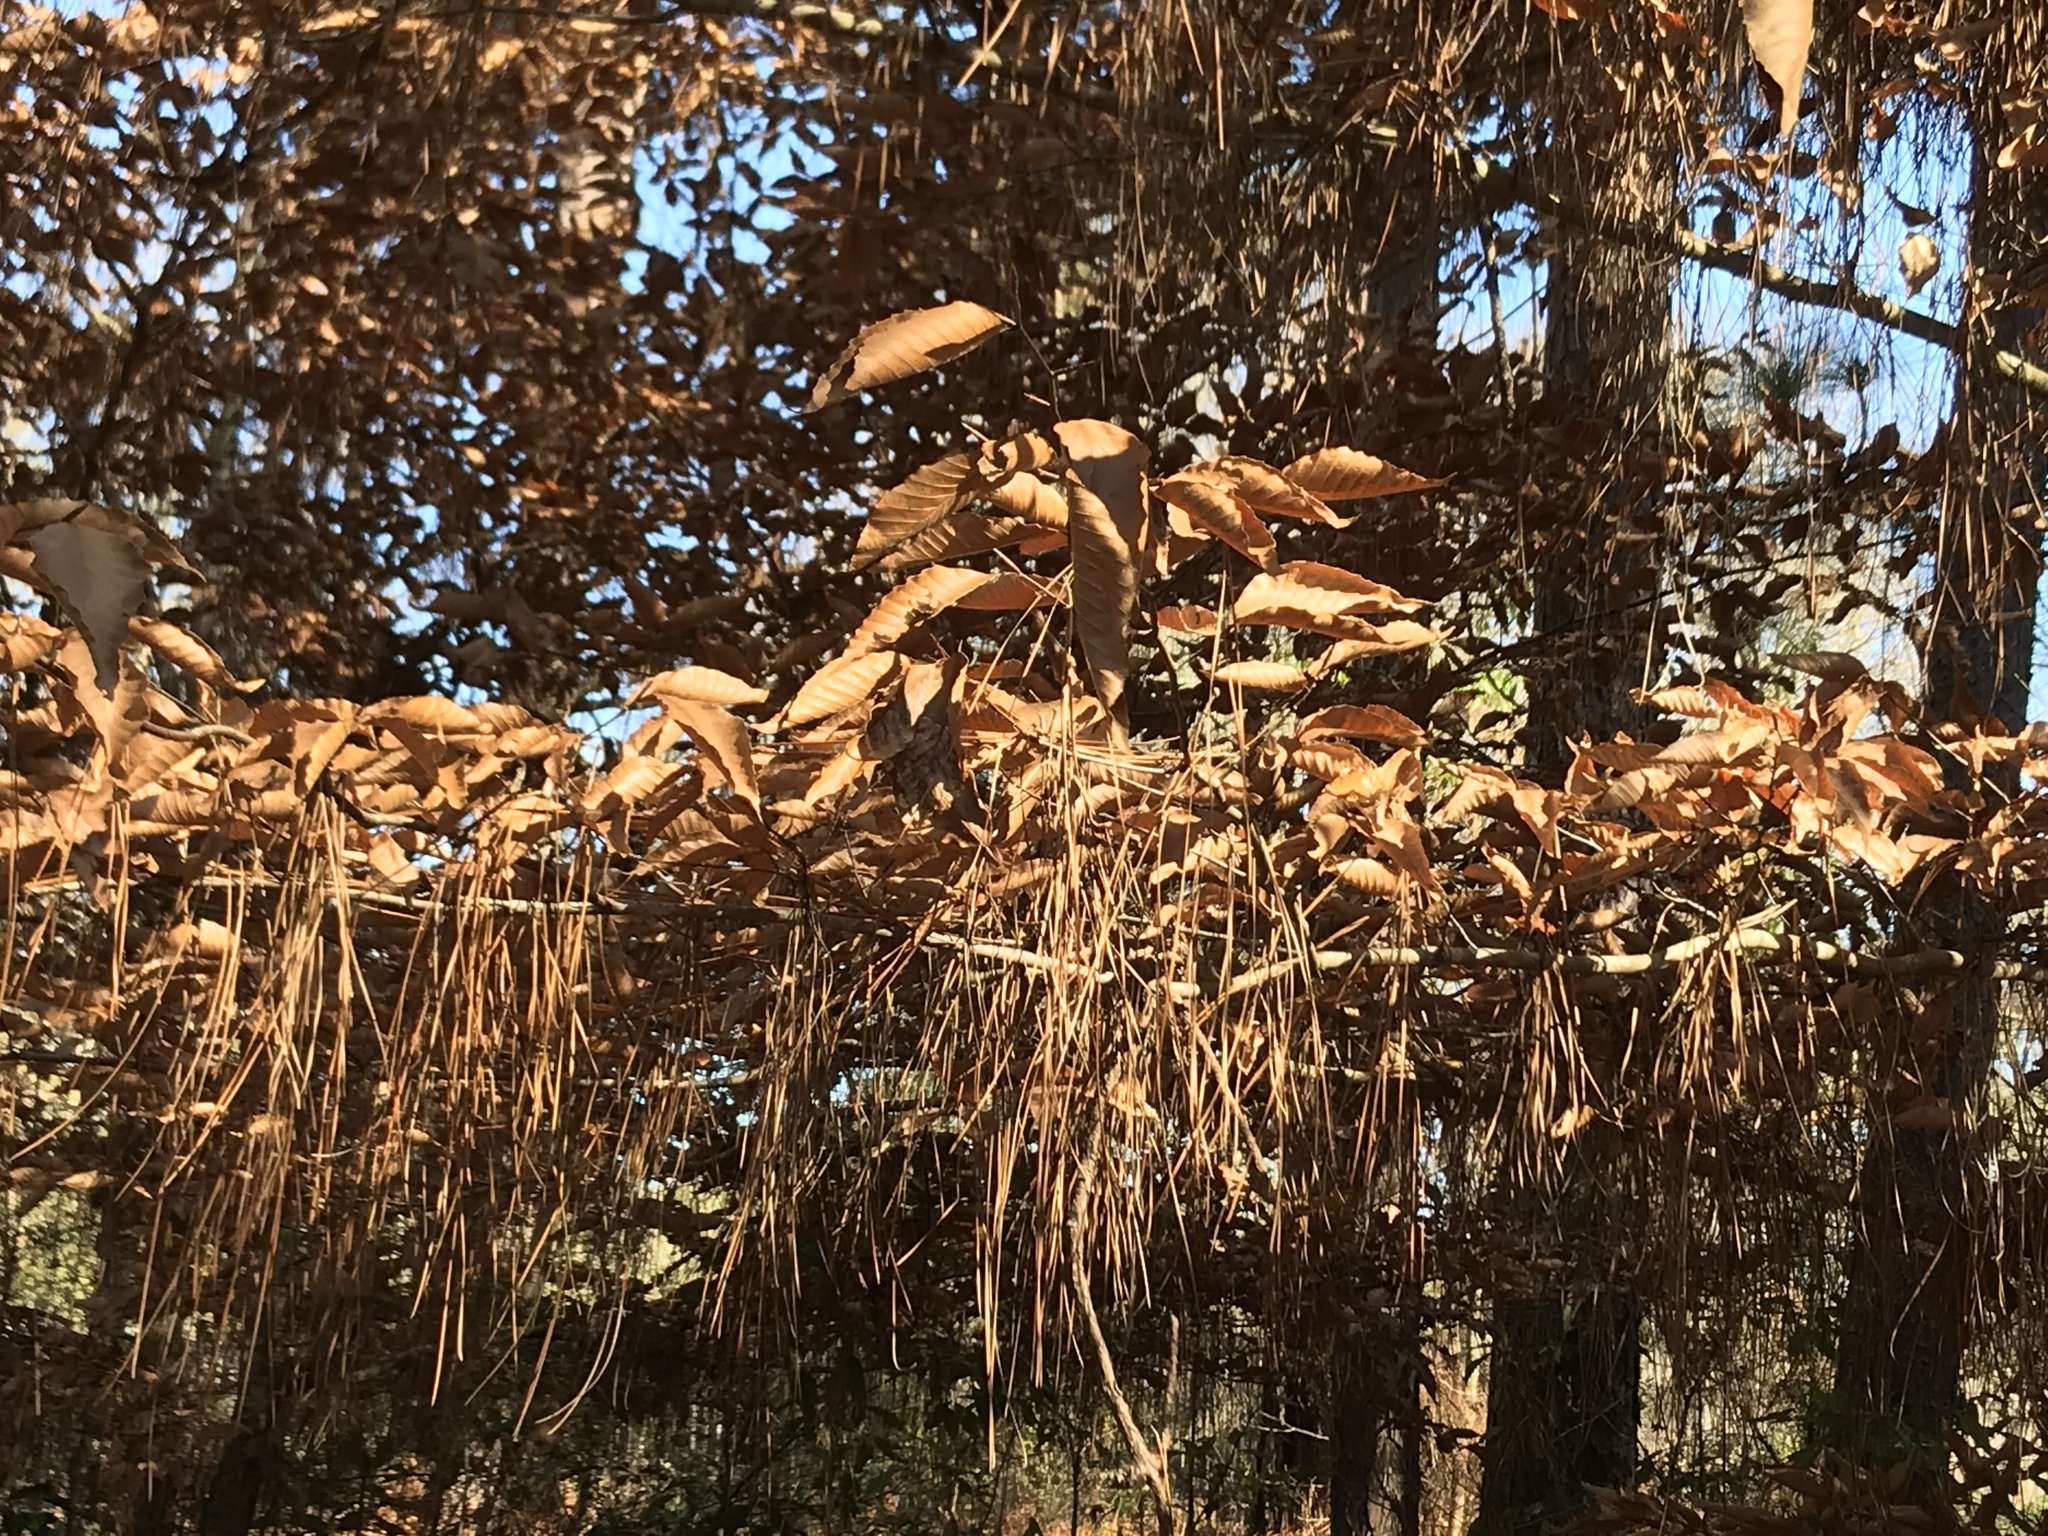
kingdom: Plantae
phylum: Tracheophyta
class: Magnoliopsida
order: Fagales
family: Fagaceae
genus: Fagus
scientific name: Fagus grandifolia
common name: American beech
